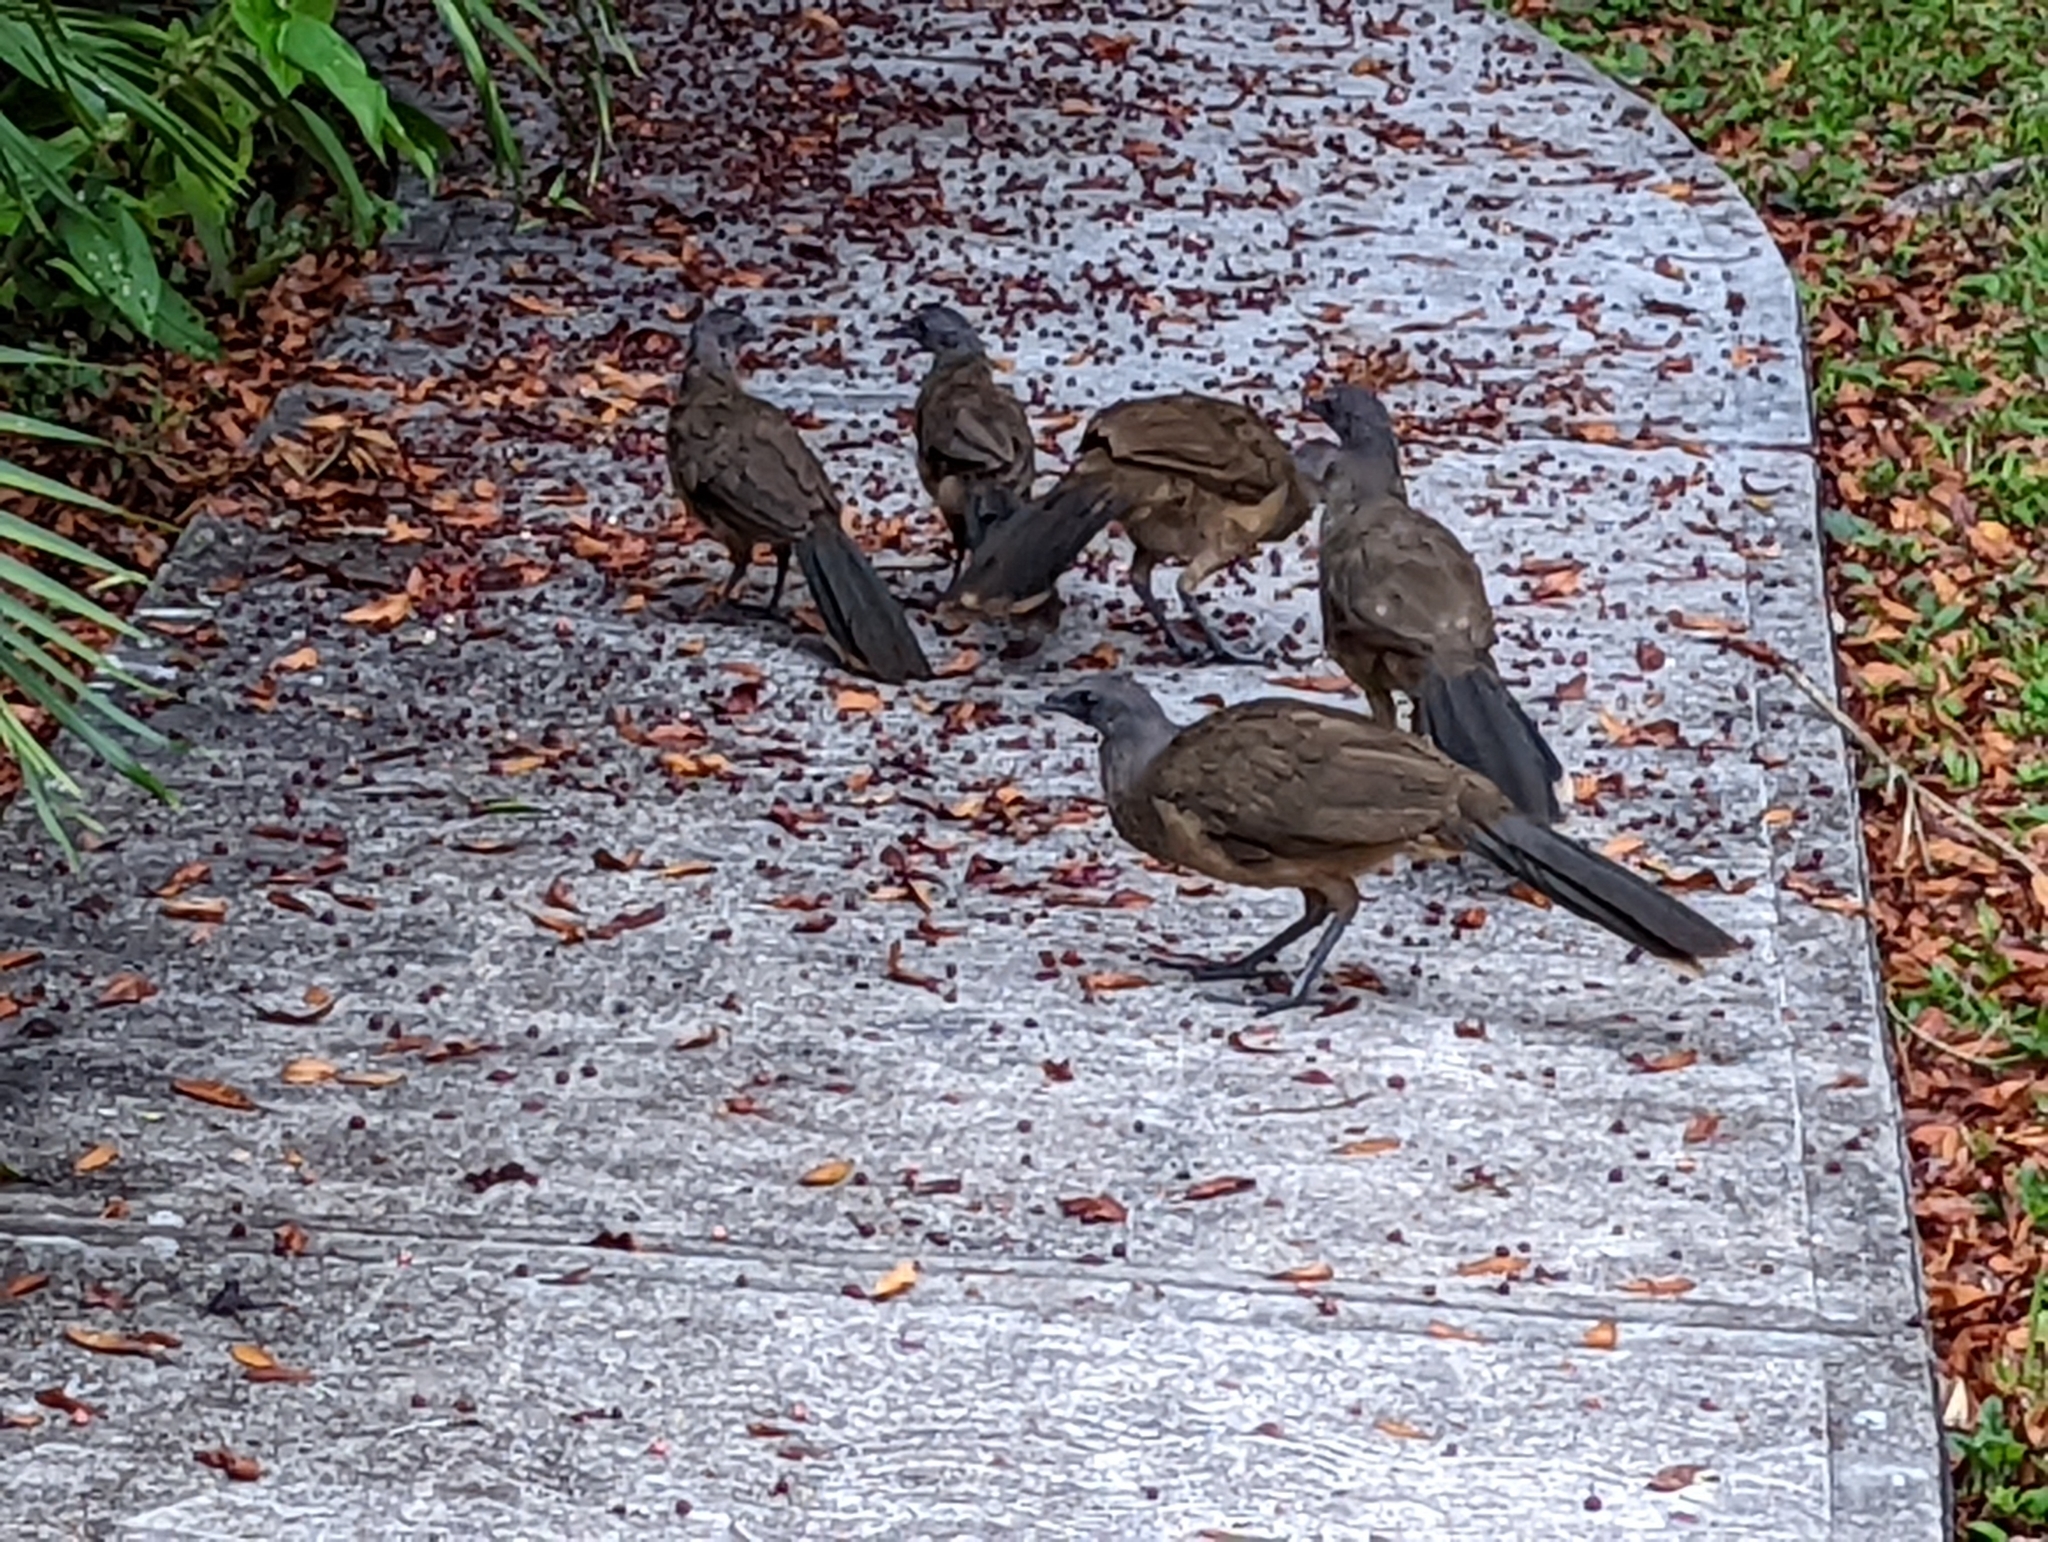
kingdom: Animalia
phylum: Chordata
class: Aves
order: Galliformes
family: Cracidae
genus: Ortalis
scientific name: Ortalis vetula
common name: Plain chachalaca
